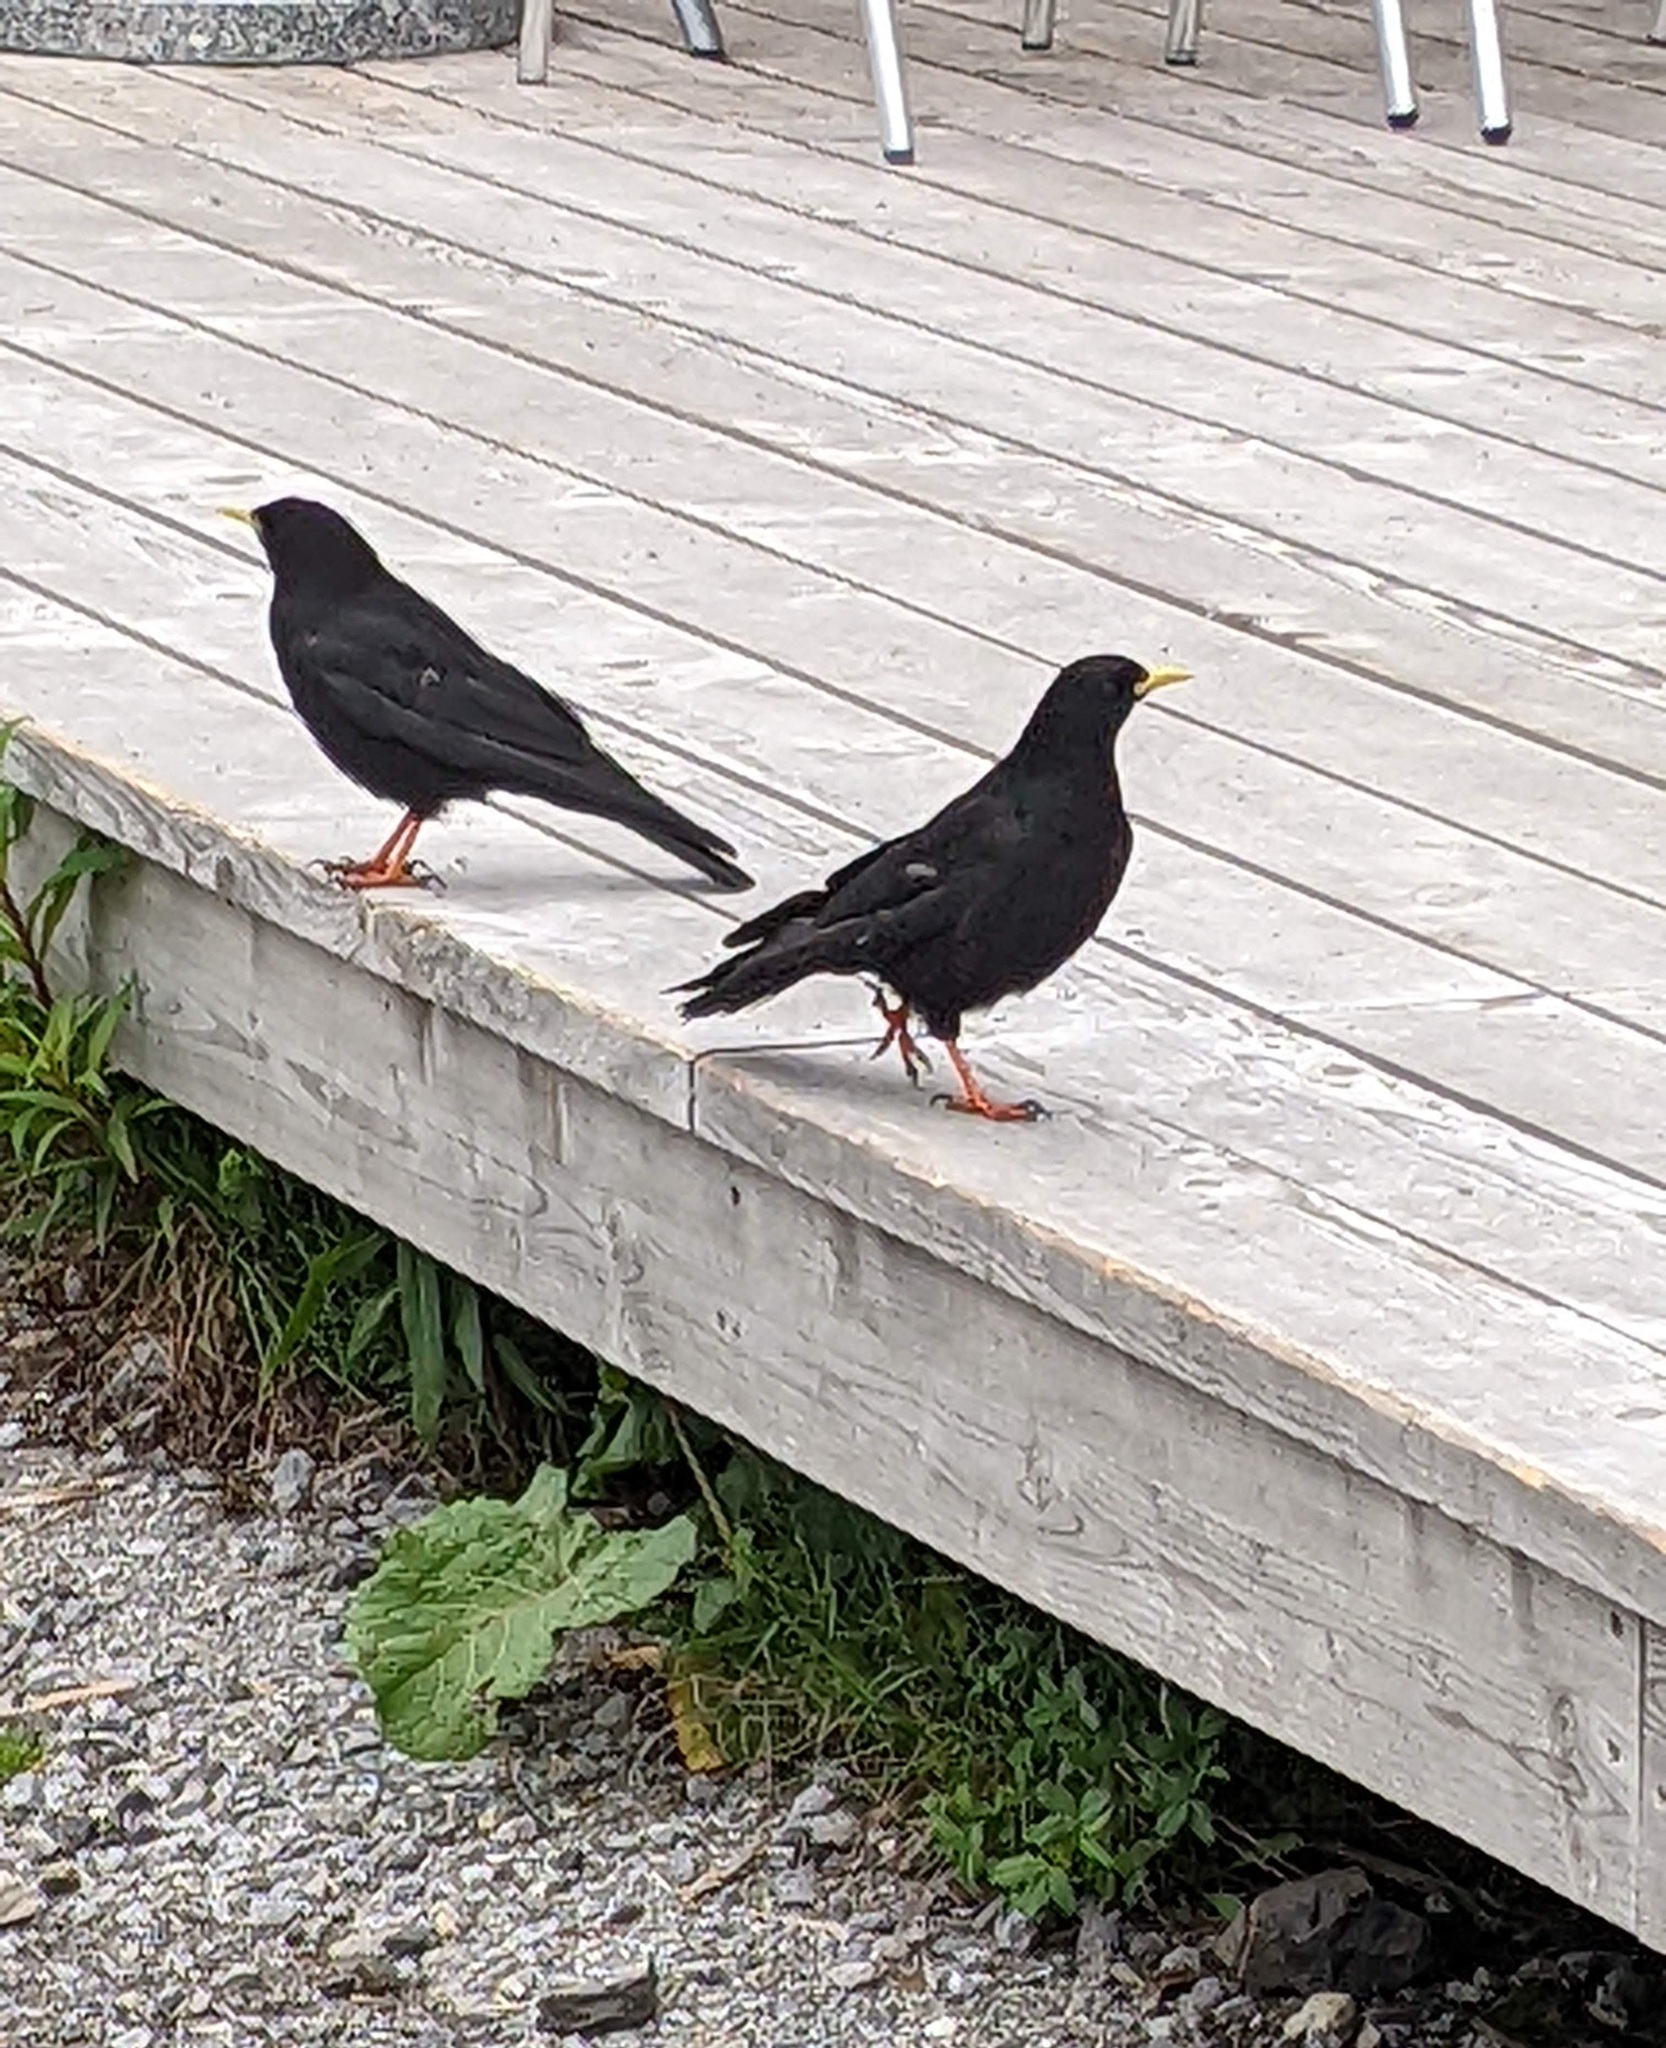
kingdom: Animalia
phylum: Chordata
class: Aves
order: Passeriformes
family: Corvidae
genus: Pyrrhocorax
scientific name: Pyrrhocorax graculus
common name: Alpine chough
